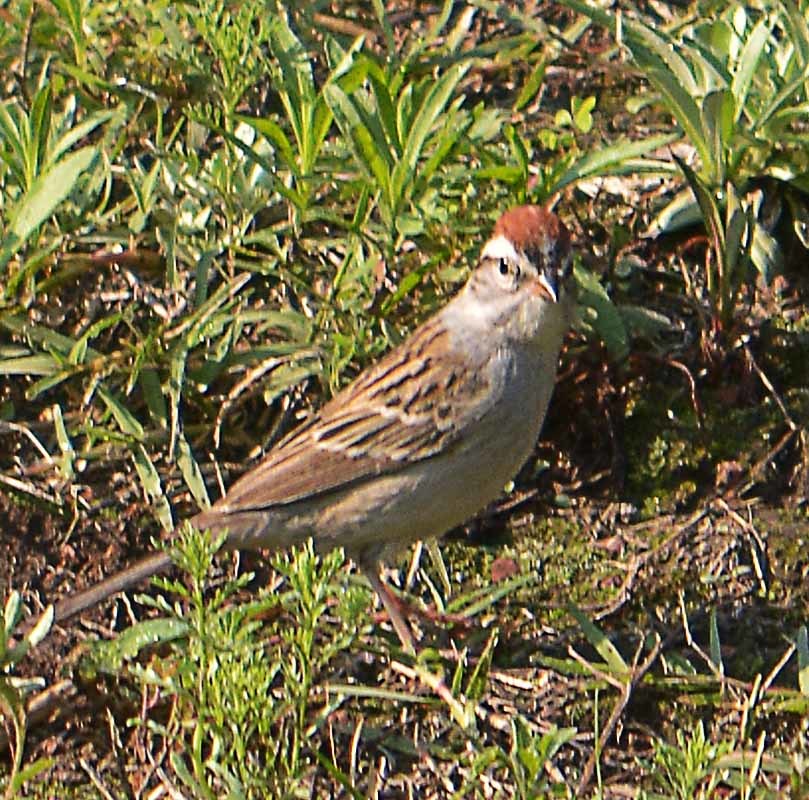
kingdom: Animalia
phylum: Chordata
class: Aves
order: Passeriformes
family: Passerellidae
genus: Spizella
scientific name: Spizella passerina
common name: Chipping sparrow
